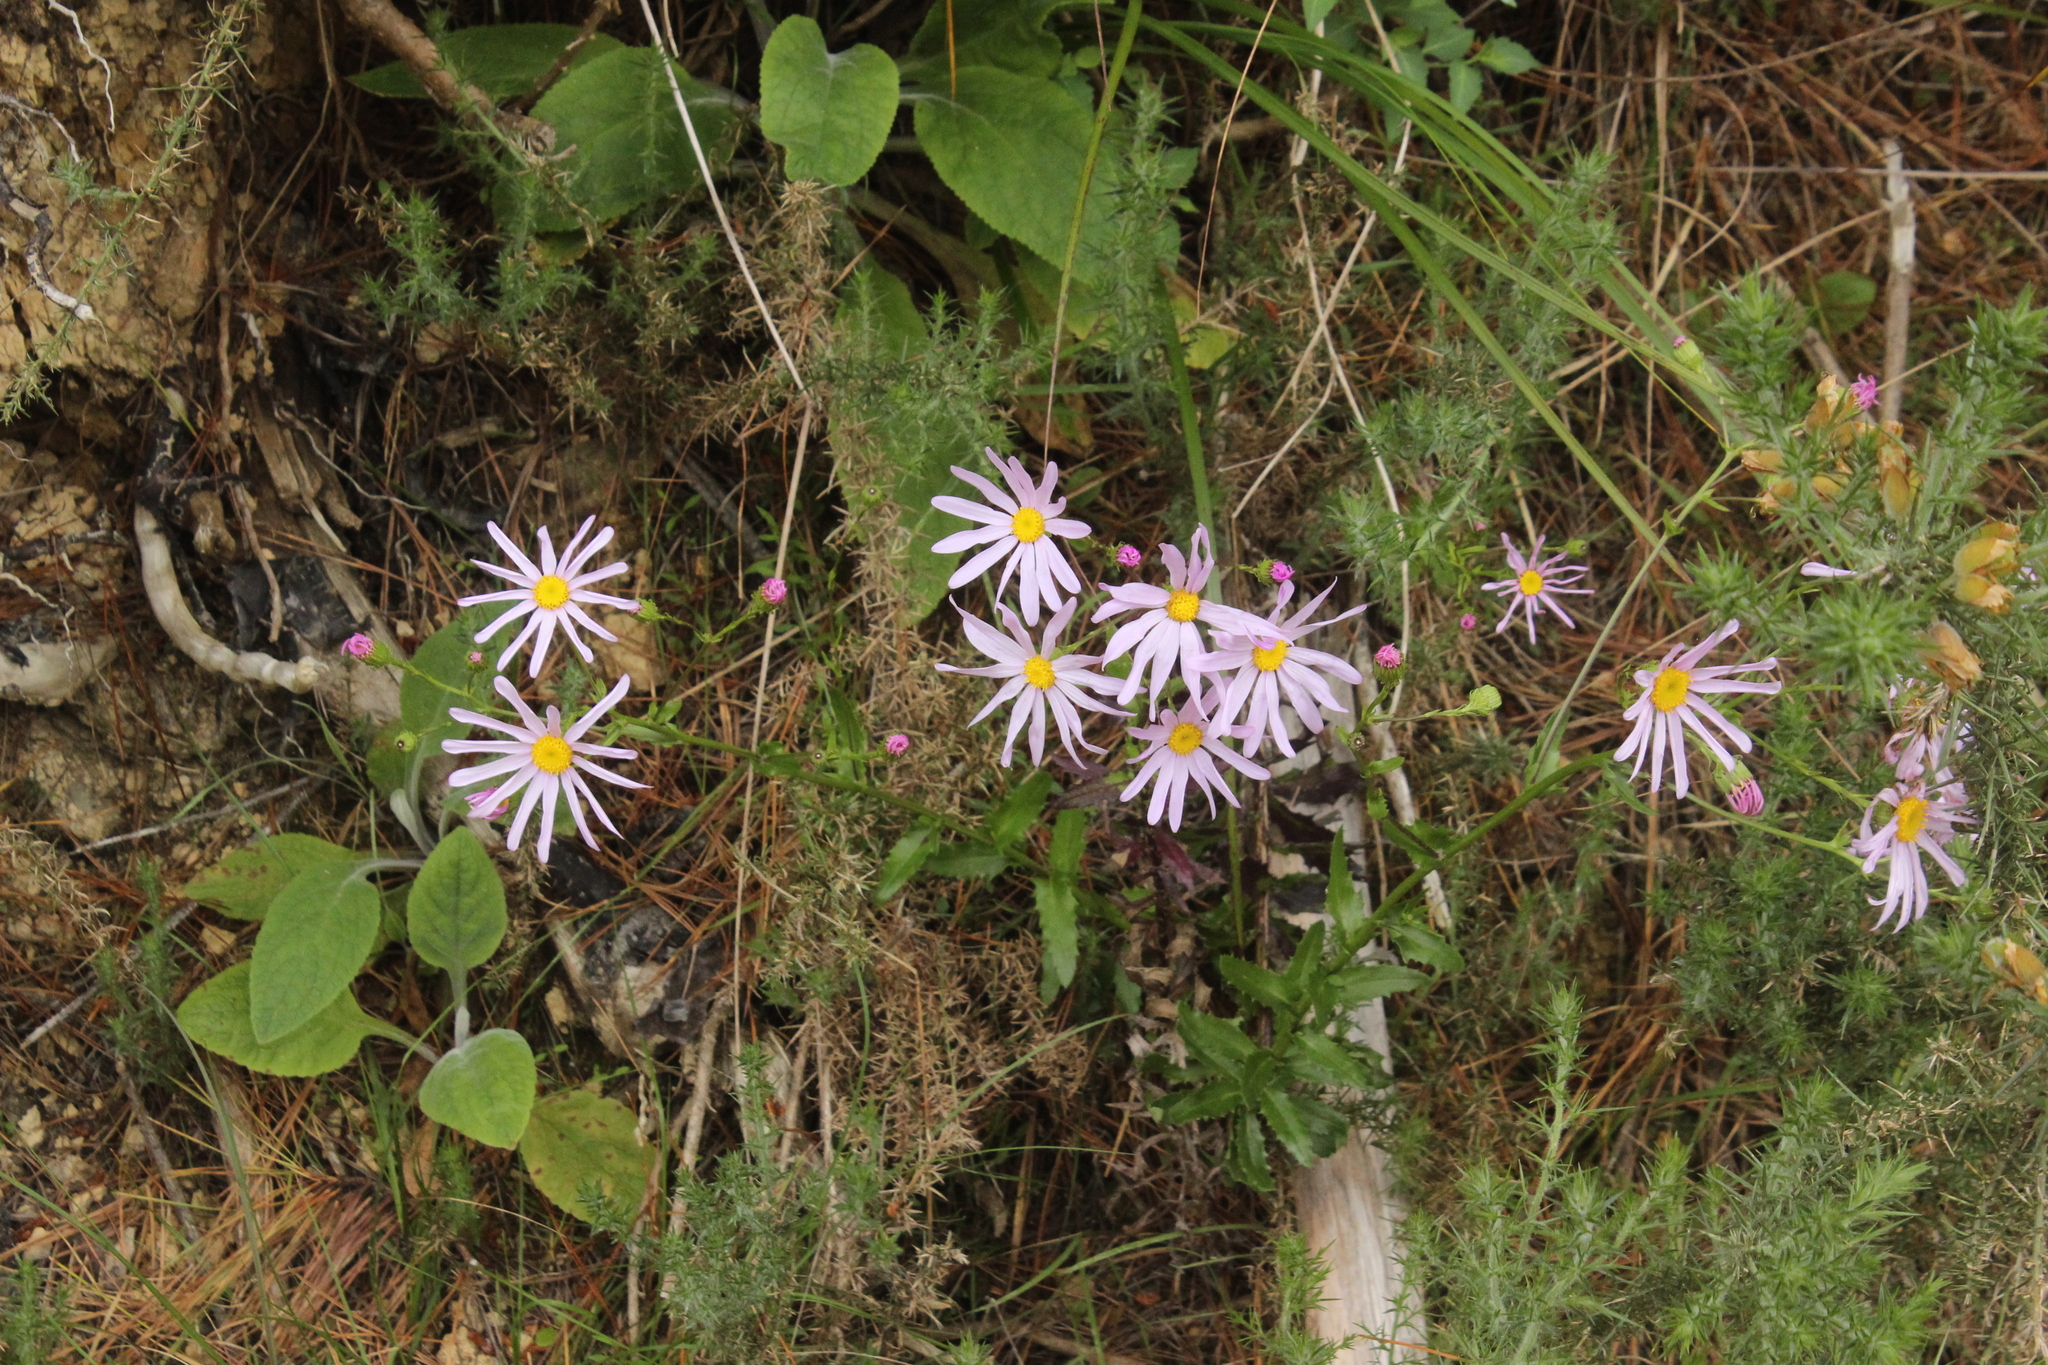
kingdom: Plantae
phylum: Tracheophyta
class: Magnoliopsida
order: Asterales
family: Asteraceae
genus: Senecio
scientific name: Senecio glastifolius
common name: Woad-leaved ragwort
